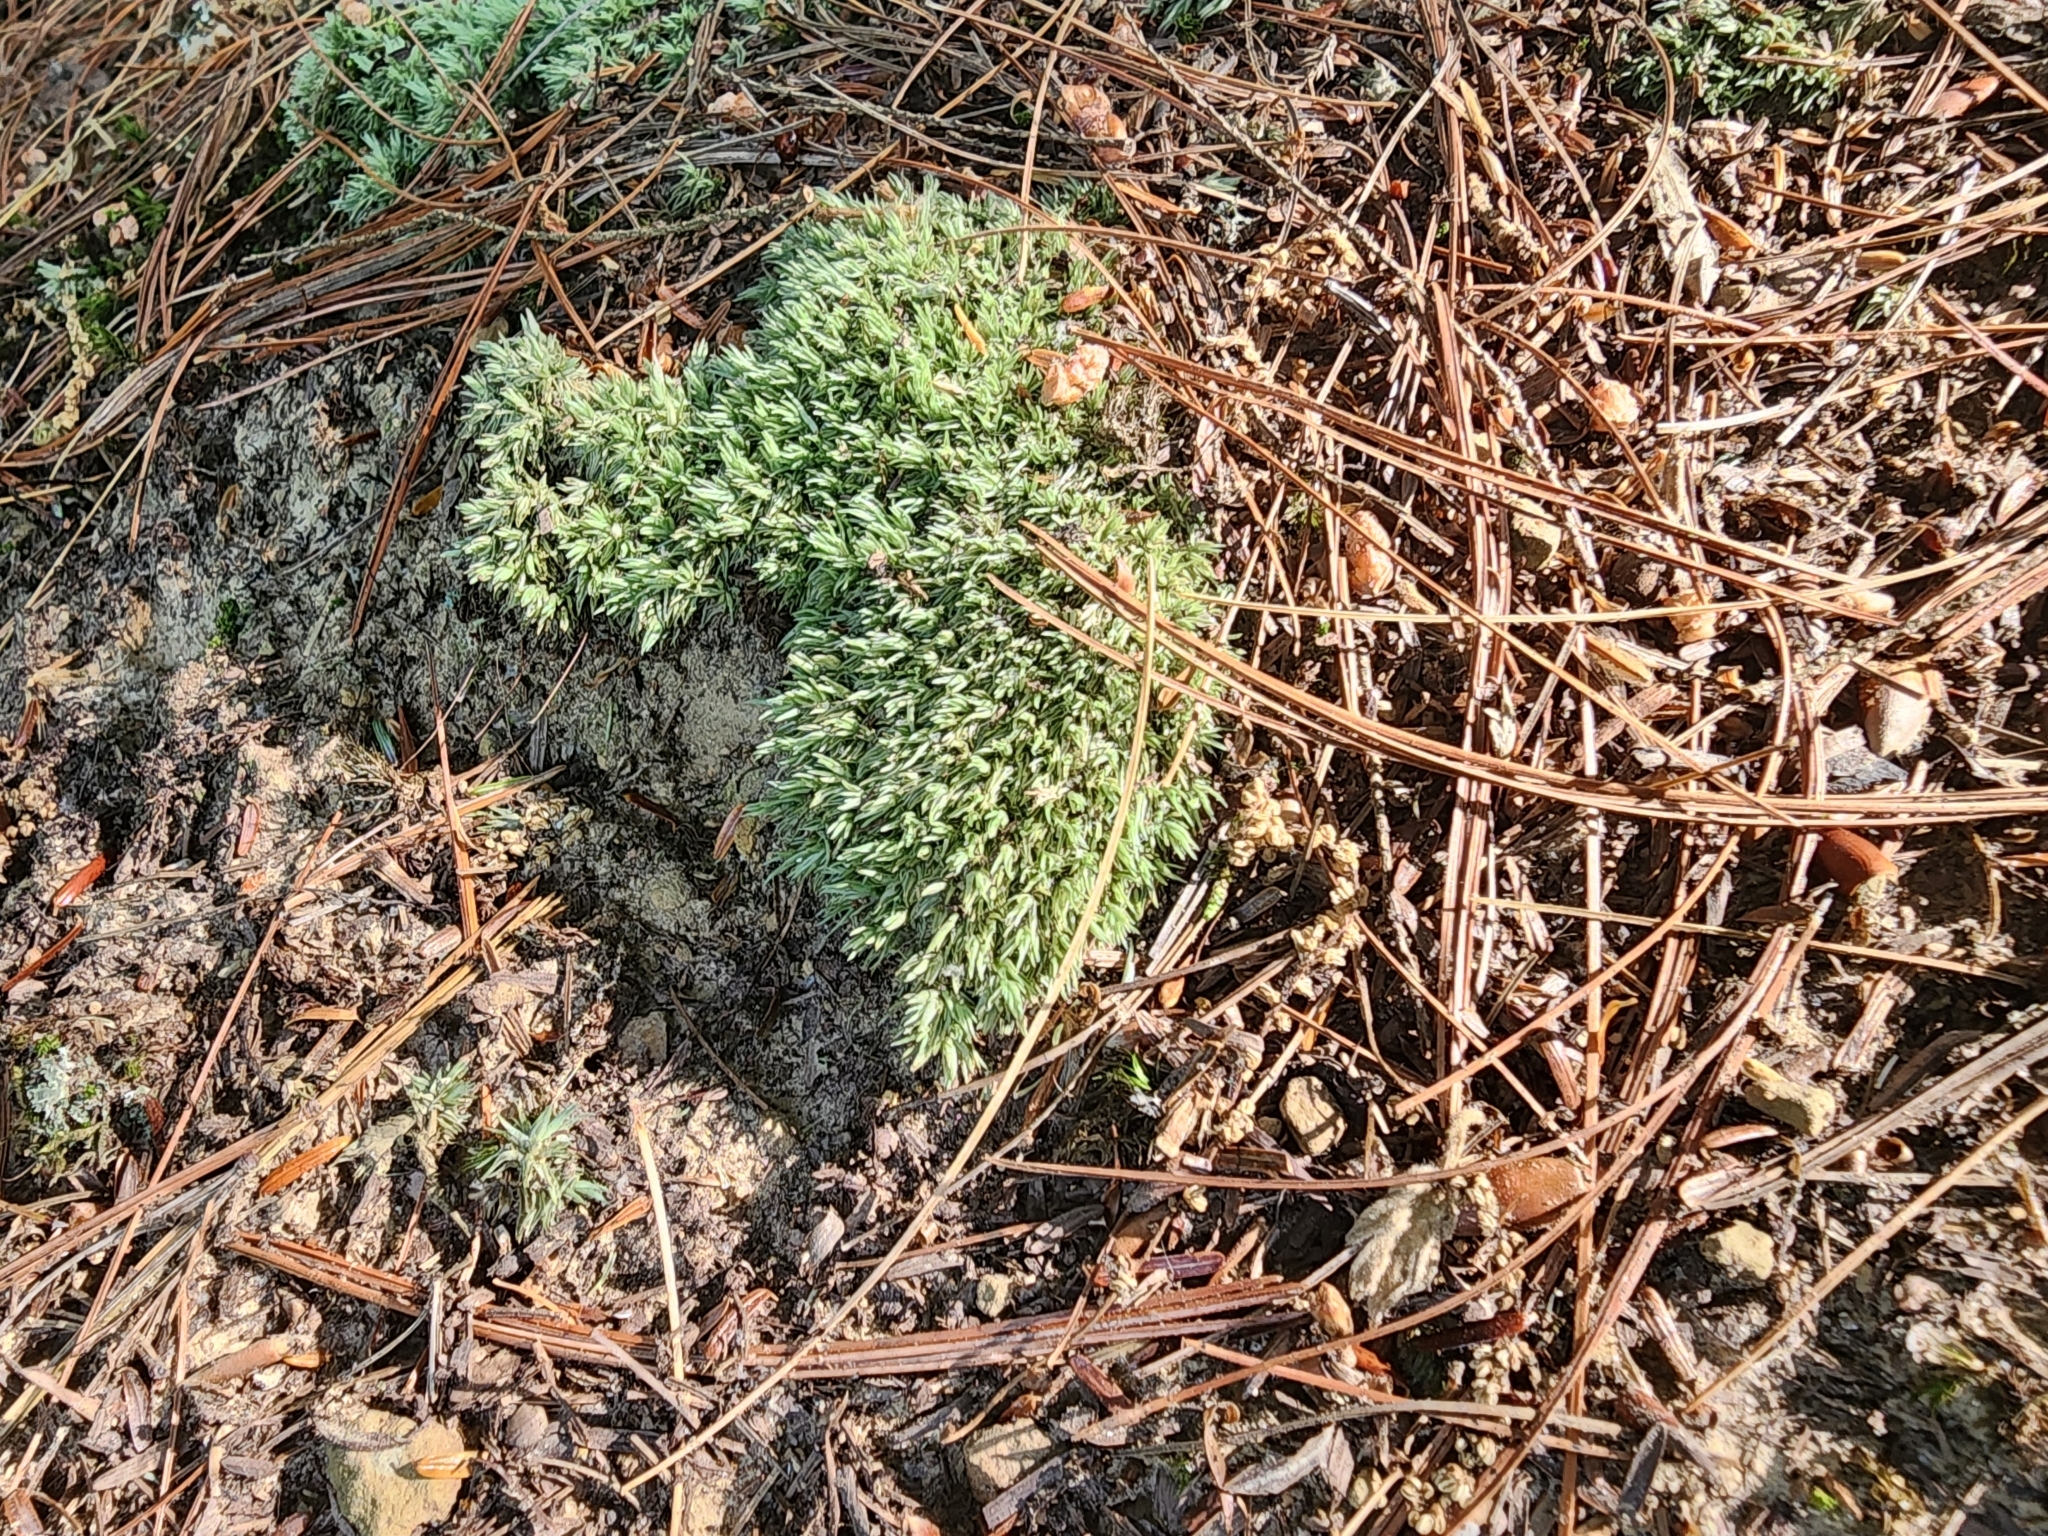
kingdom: Plantae
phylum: Bryophyta
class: Bryopsida
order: Dicranales
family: Leucobryaceae
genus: Leucobryum
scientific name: Leucobryum glaucum
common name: Large white-moss
